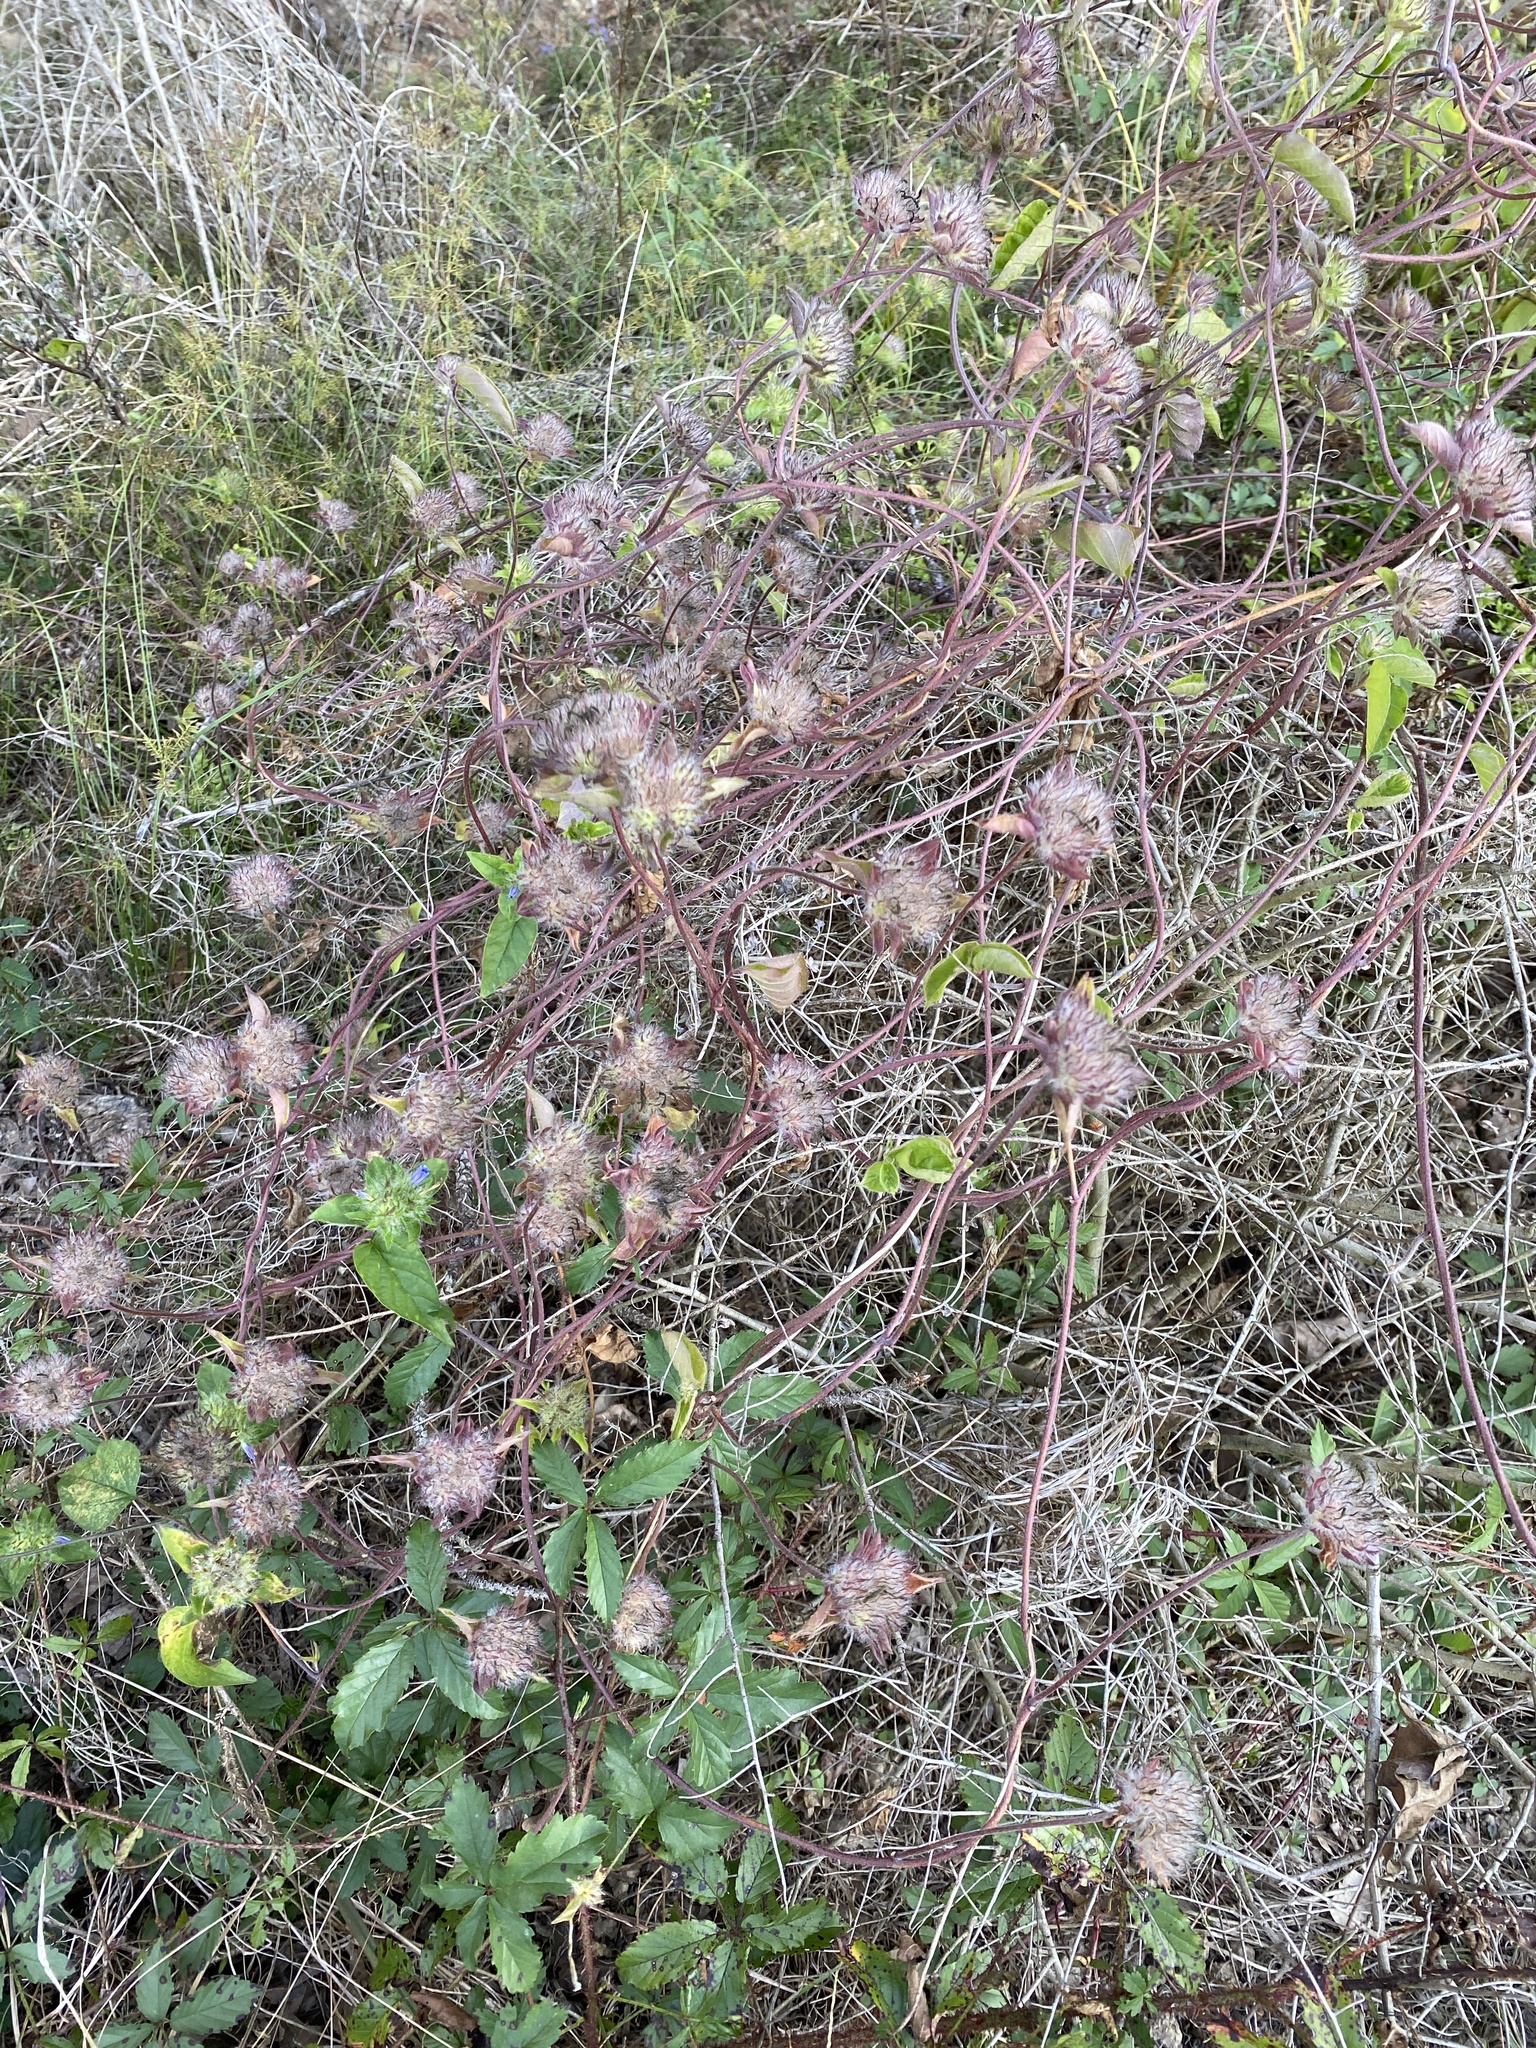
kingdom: Plantae
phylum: Tracheophyta
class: Magnoliopsida
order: Solanales
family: Convolvulaceae
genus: Jacquemontia
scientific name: Jacquemontia tamnifolia
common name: Hairy clustervine
